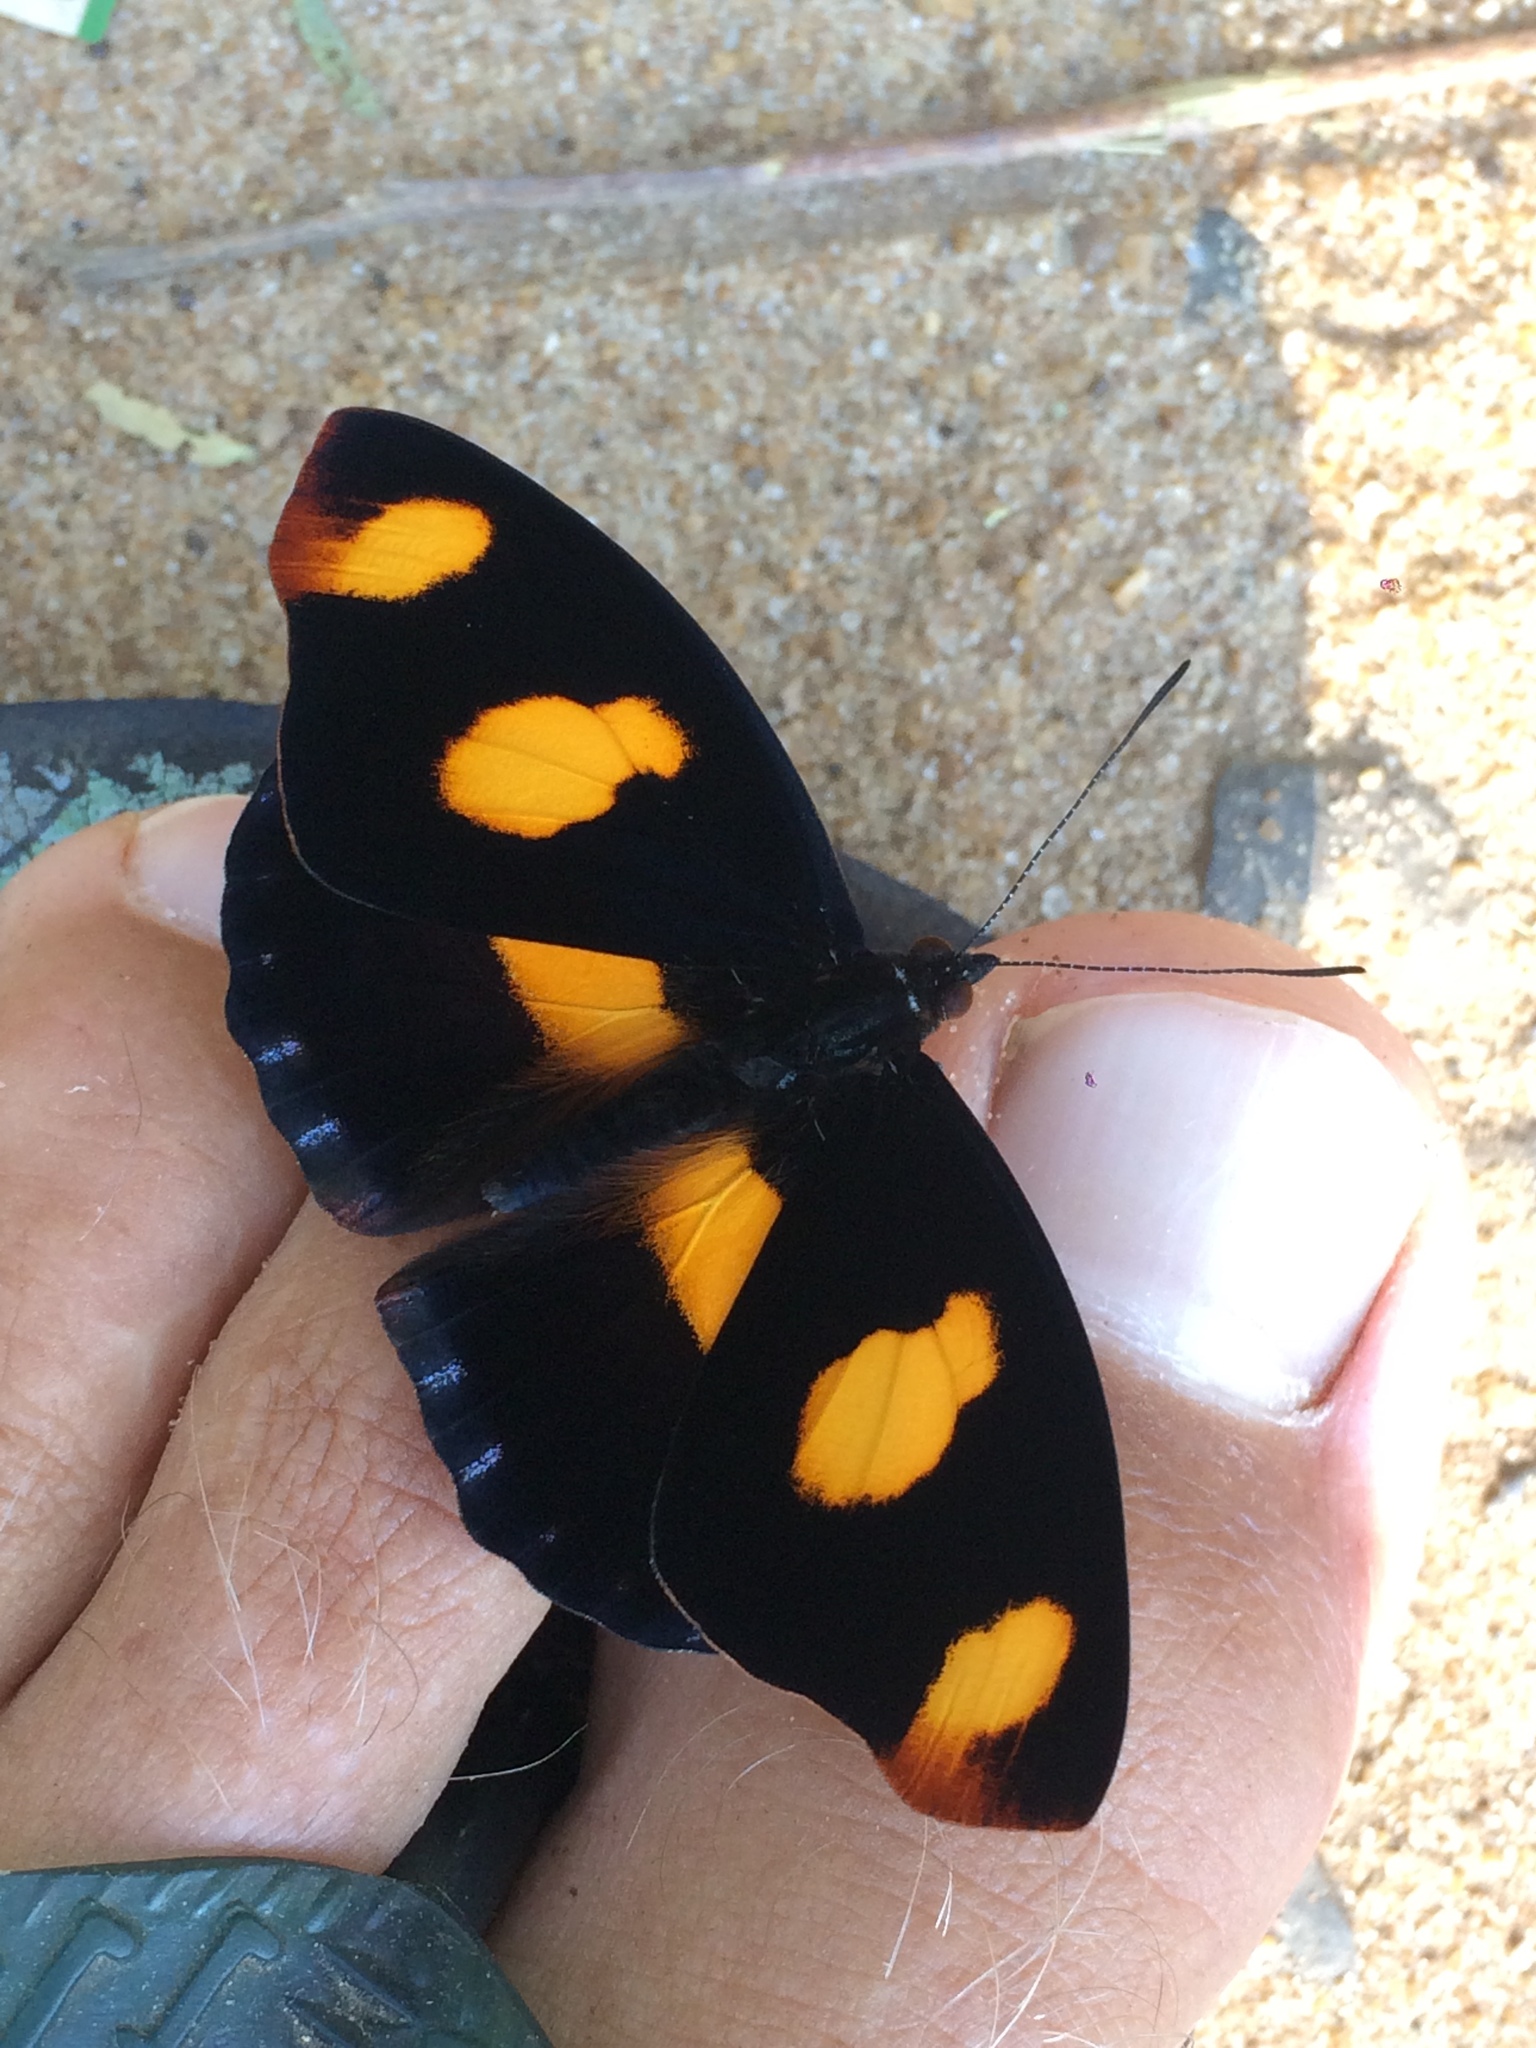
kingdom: Animalia
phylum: Arthropoda
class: Insecta
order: Lepidoptera
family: Nymphalidae
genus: Catonephele
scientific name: Catonephele numilia
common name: Blue-frosted banner
